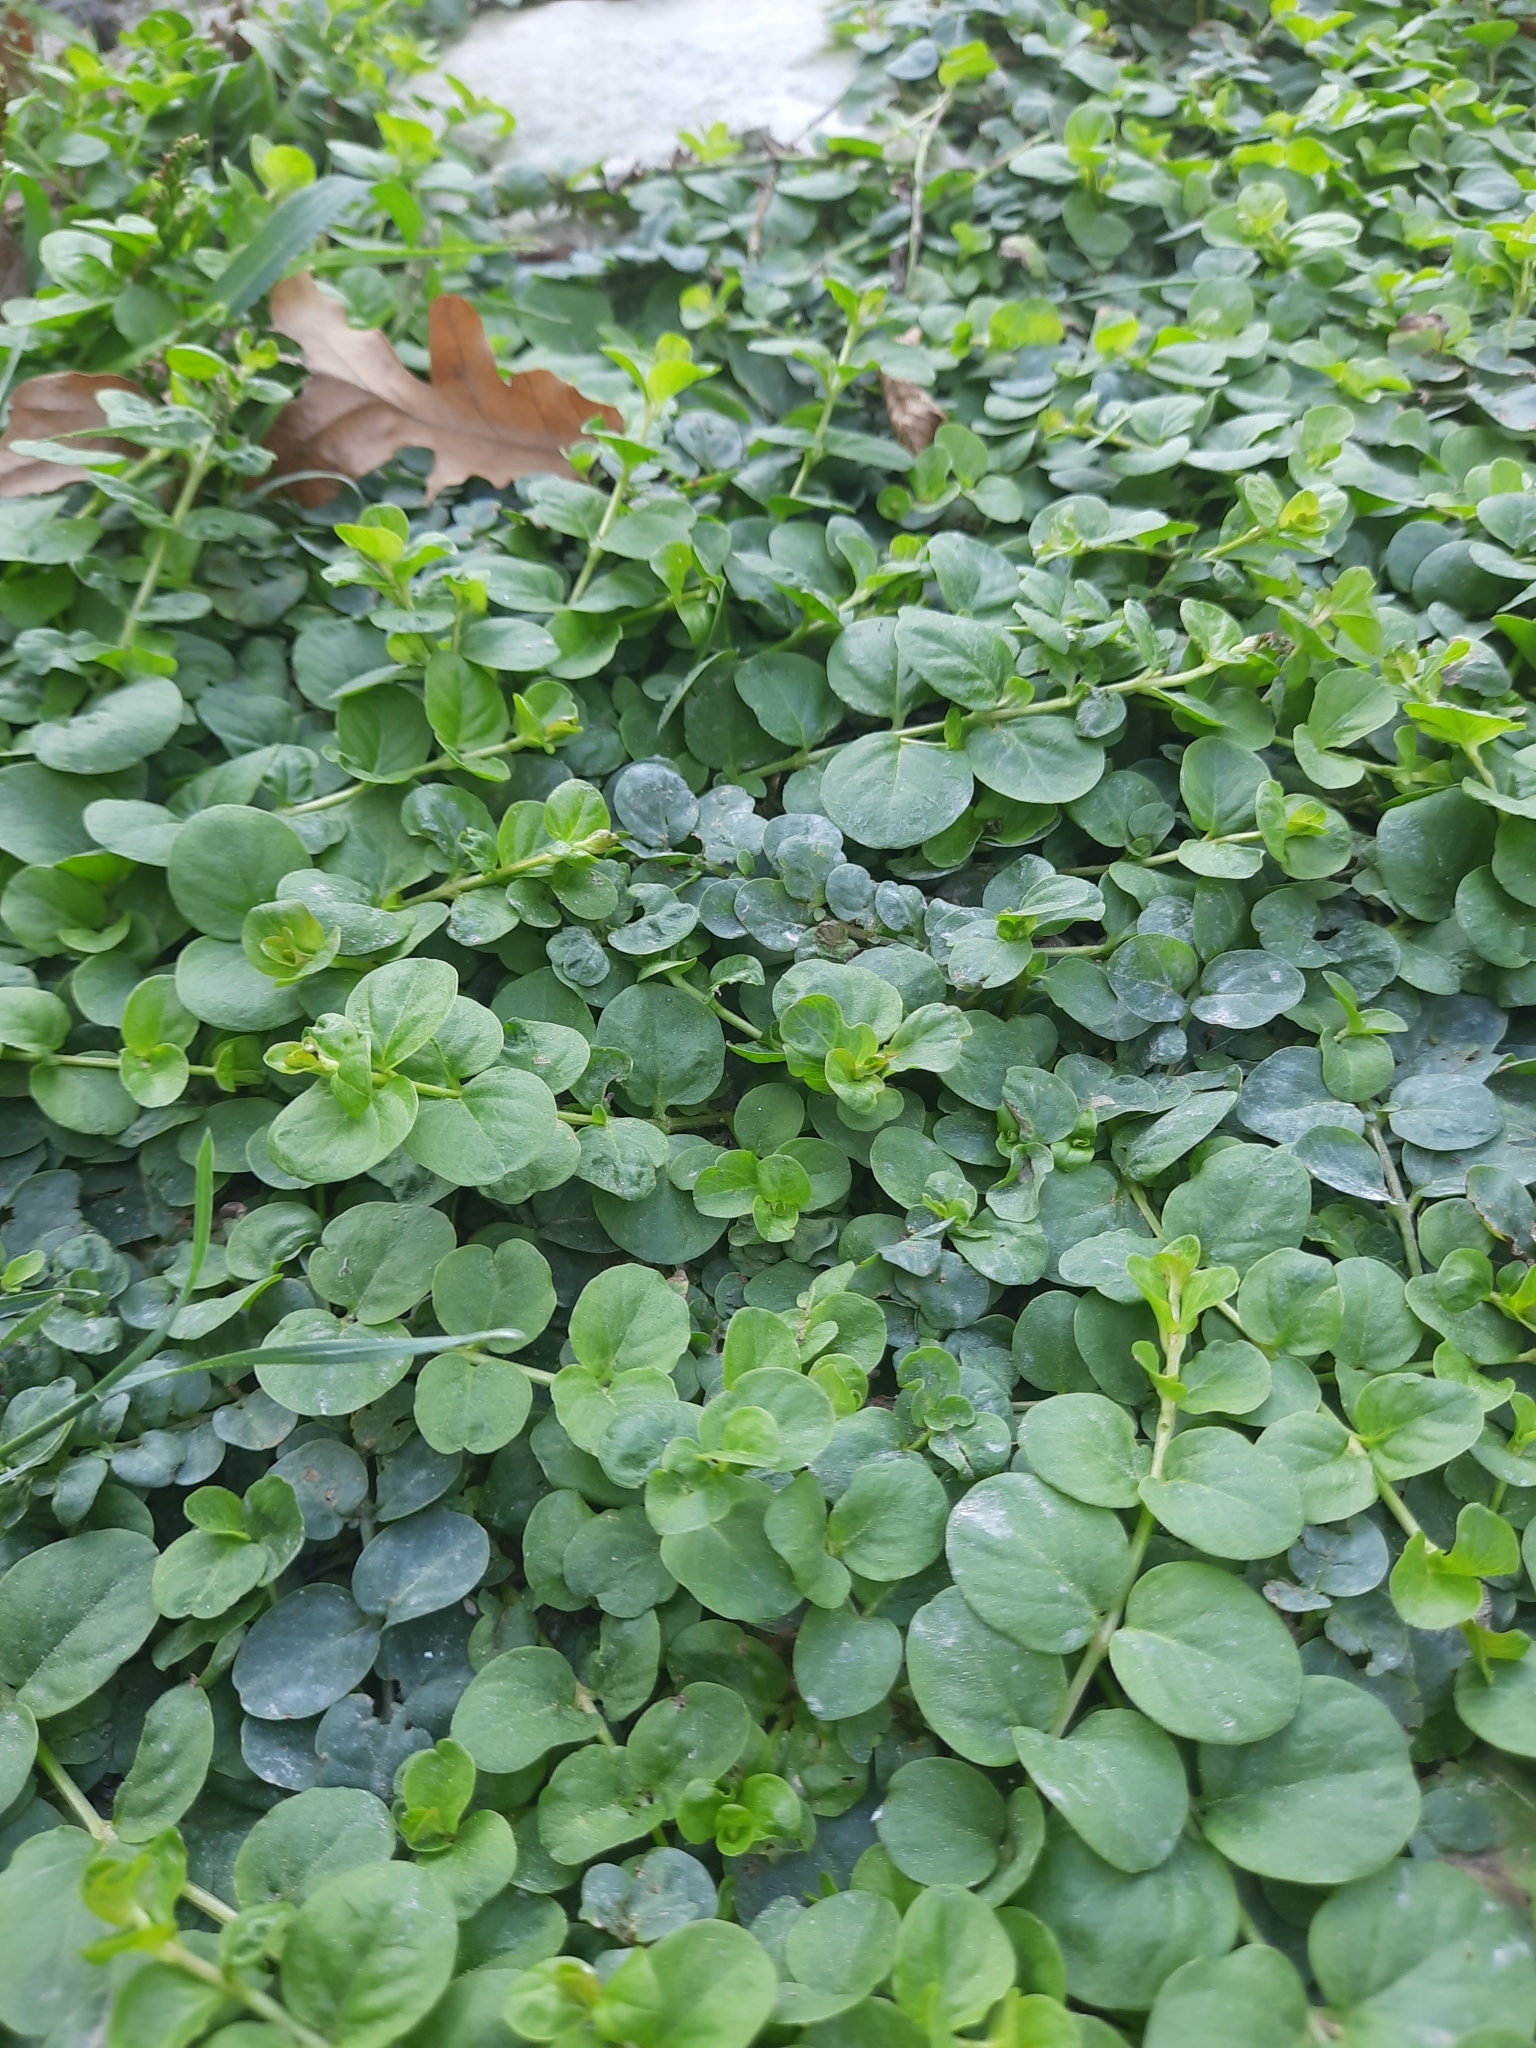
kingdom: Plantae
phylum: Tracheophyta
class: Magnoliopsida
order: Ericales
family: Primulaceae
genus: Lysimachia
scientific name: Lysimachia nummularia
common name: Moneywort
